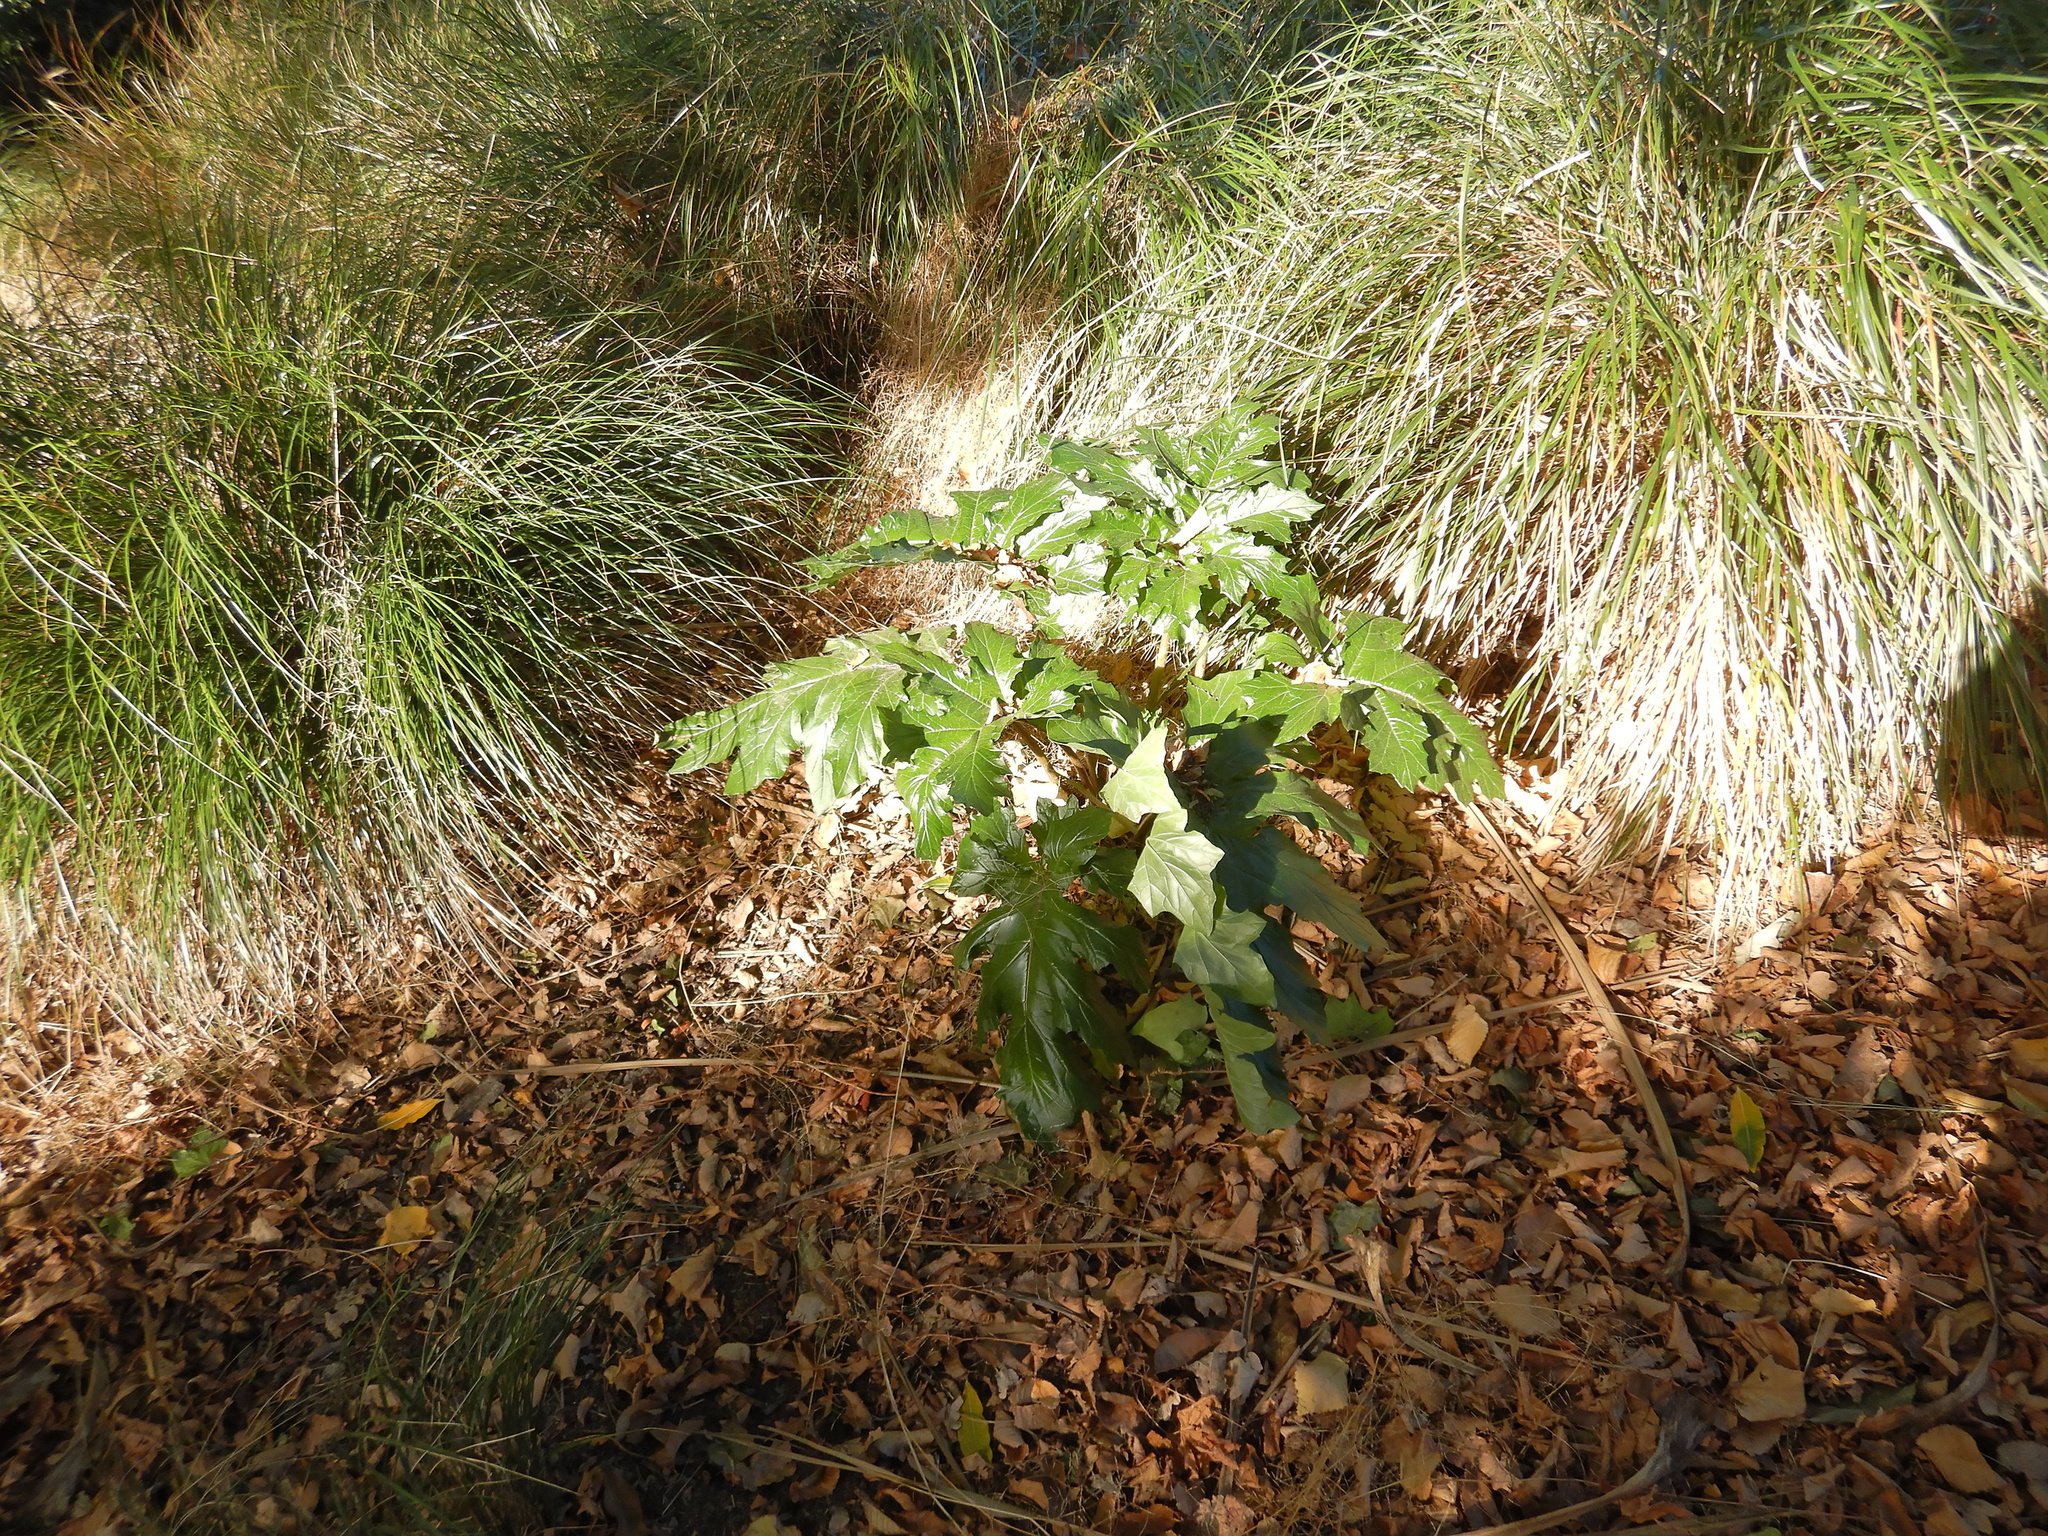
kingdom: Plantae
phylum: Tracheophyta
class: Magnoliopsida
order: Lamiales
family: Acanthaceae
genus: Acanthus
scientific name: Acanthus mollis
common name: Bear's-breech
